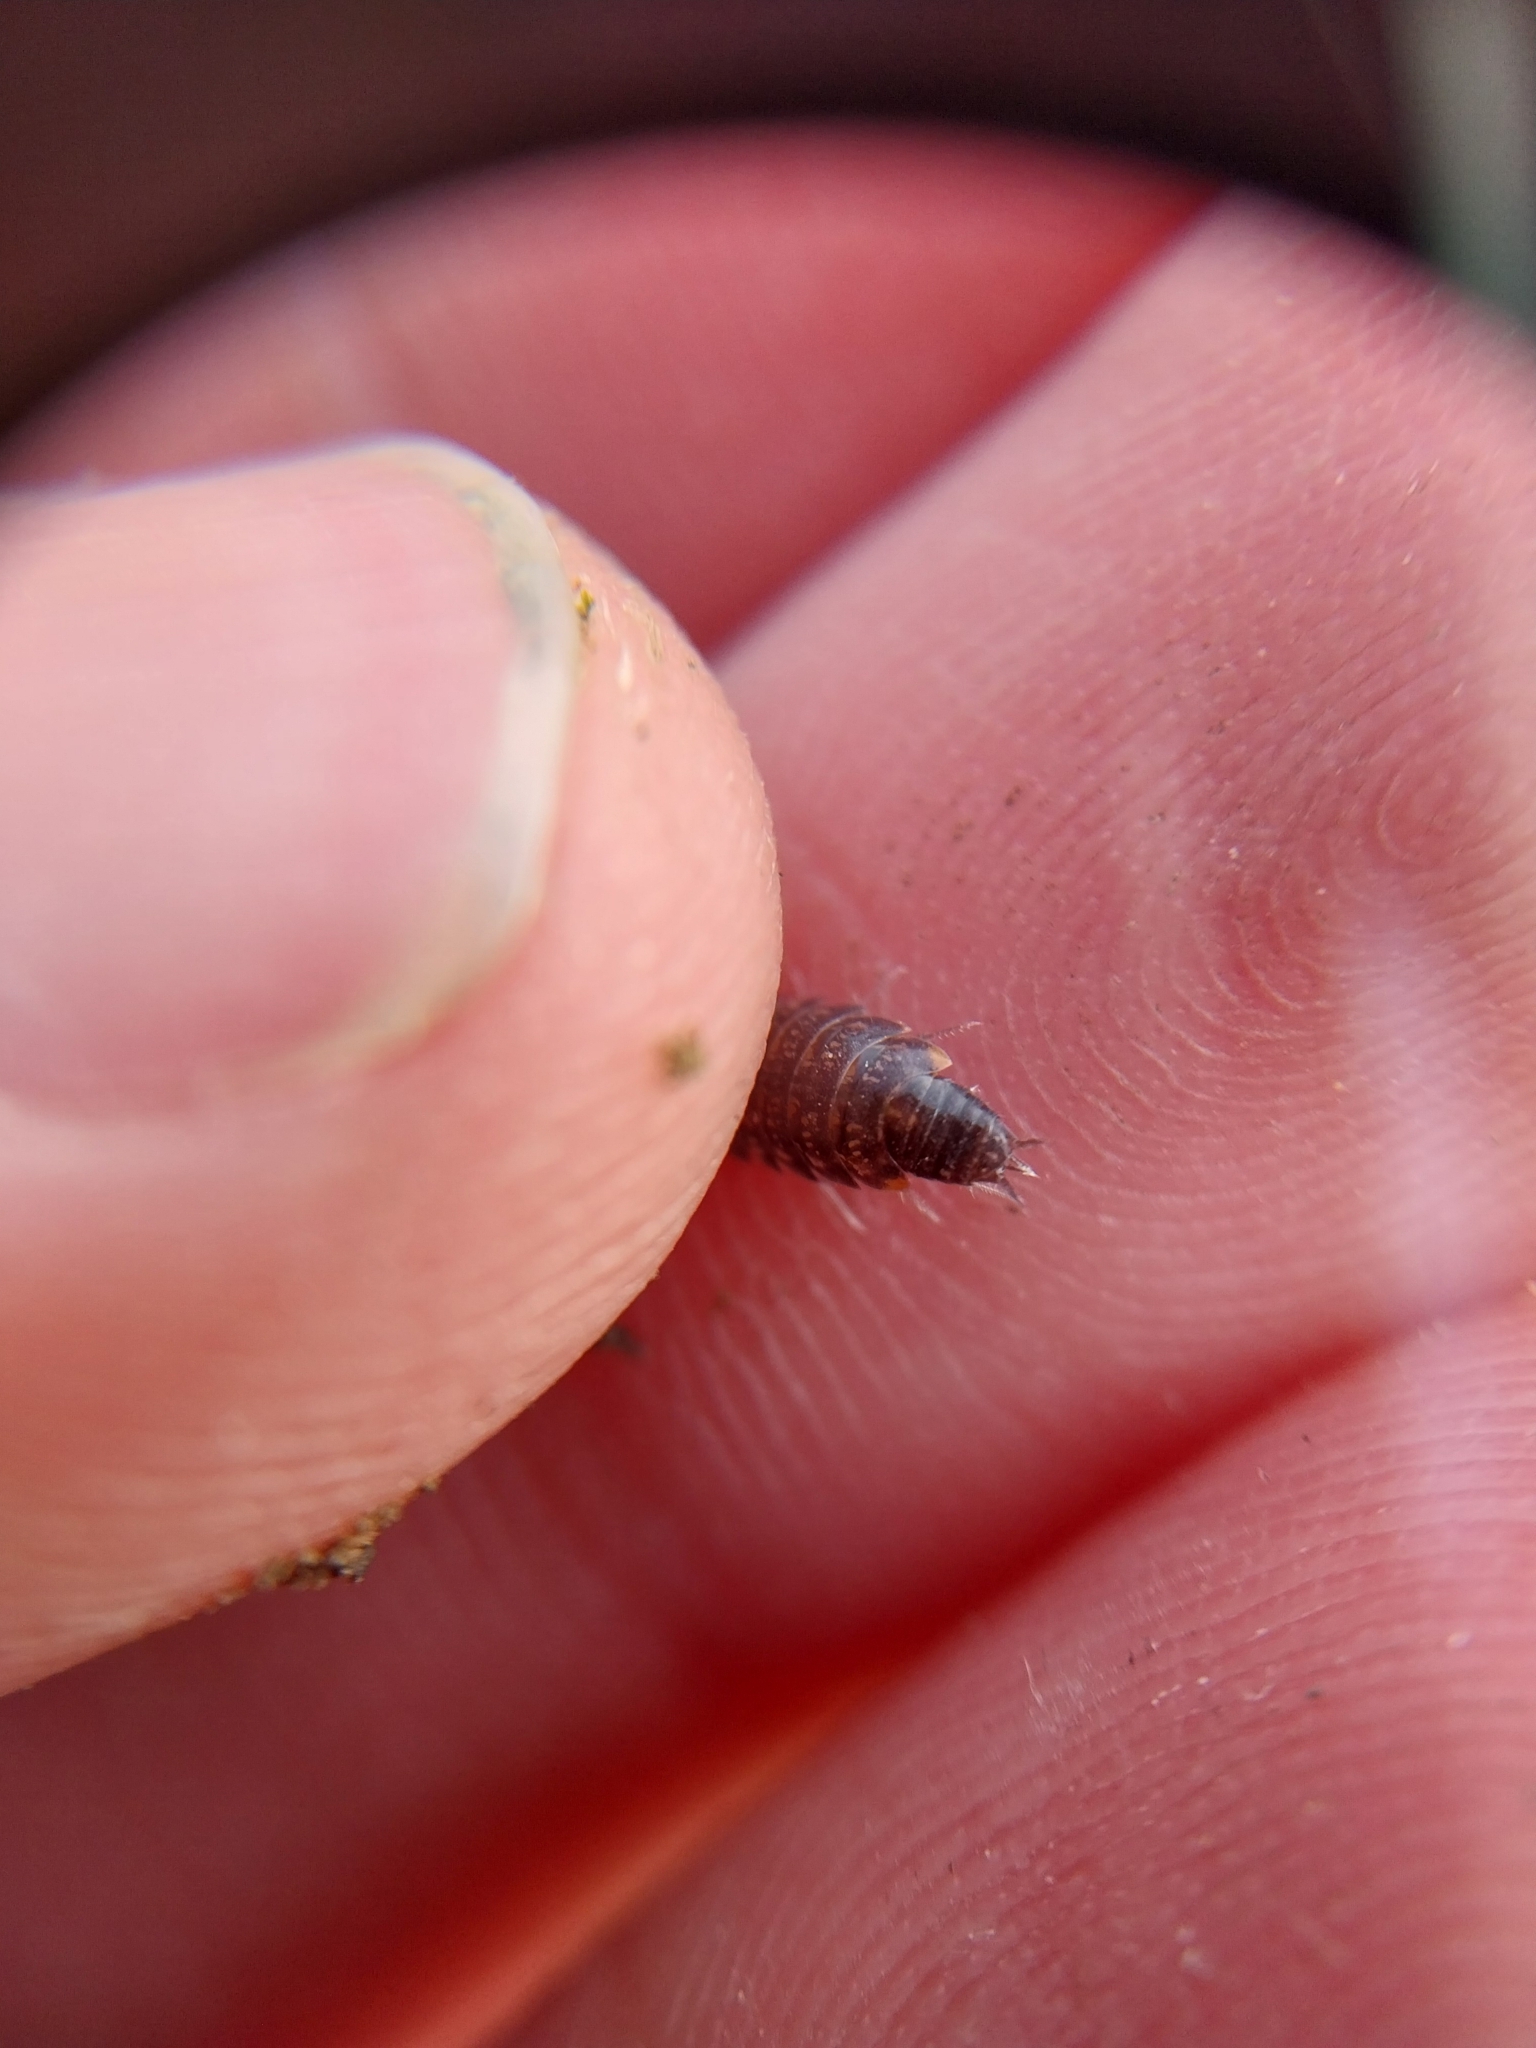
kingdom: Animalia
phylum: Arthropoda
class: Malacostraca
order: Isopoda
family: Philosciidae
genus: Chaetophiloscia
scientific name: Chaetophiloscia cellaria
